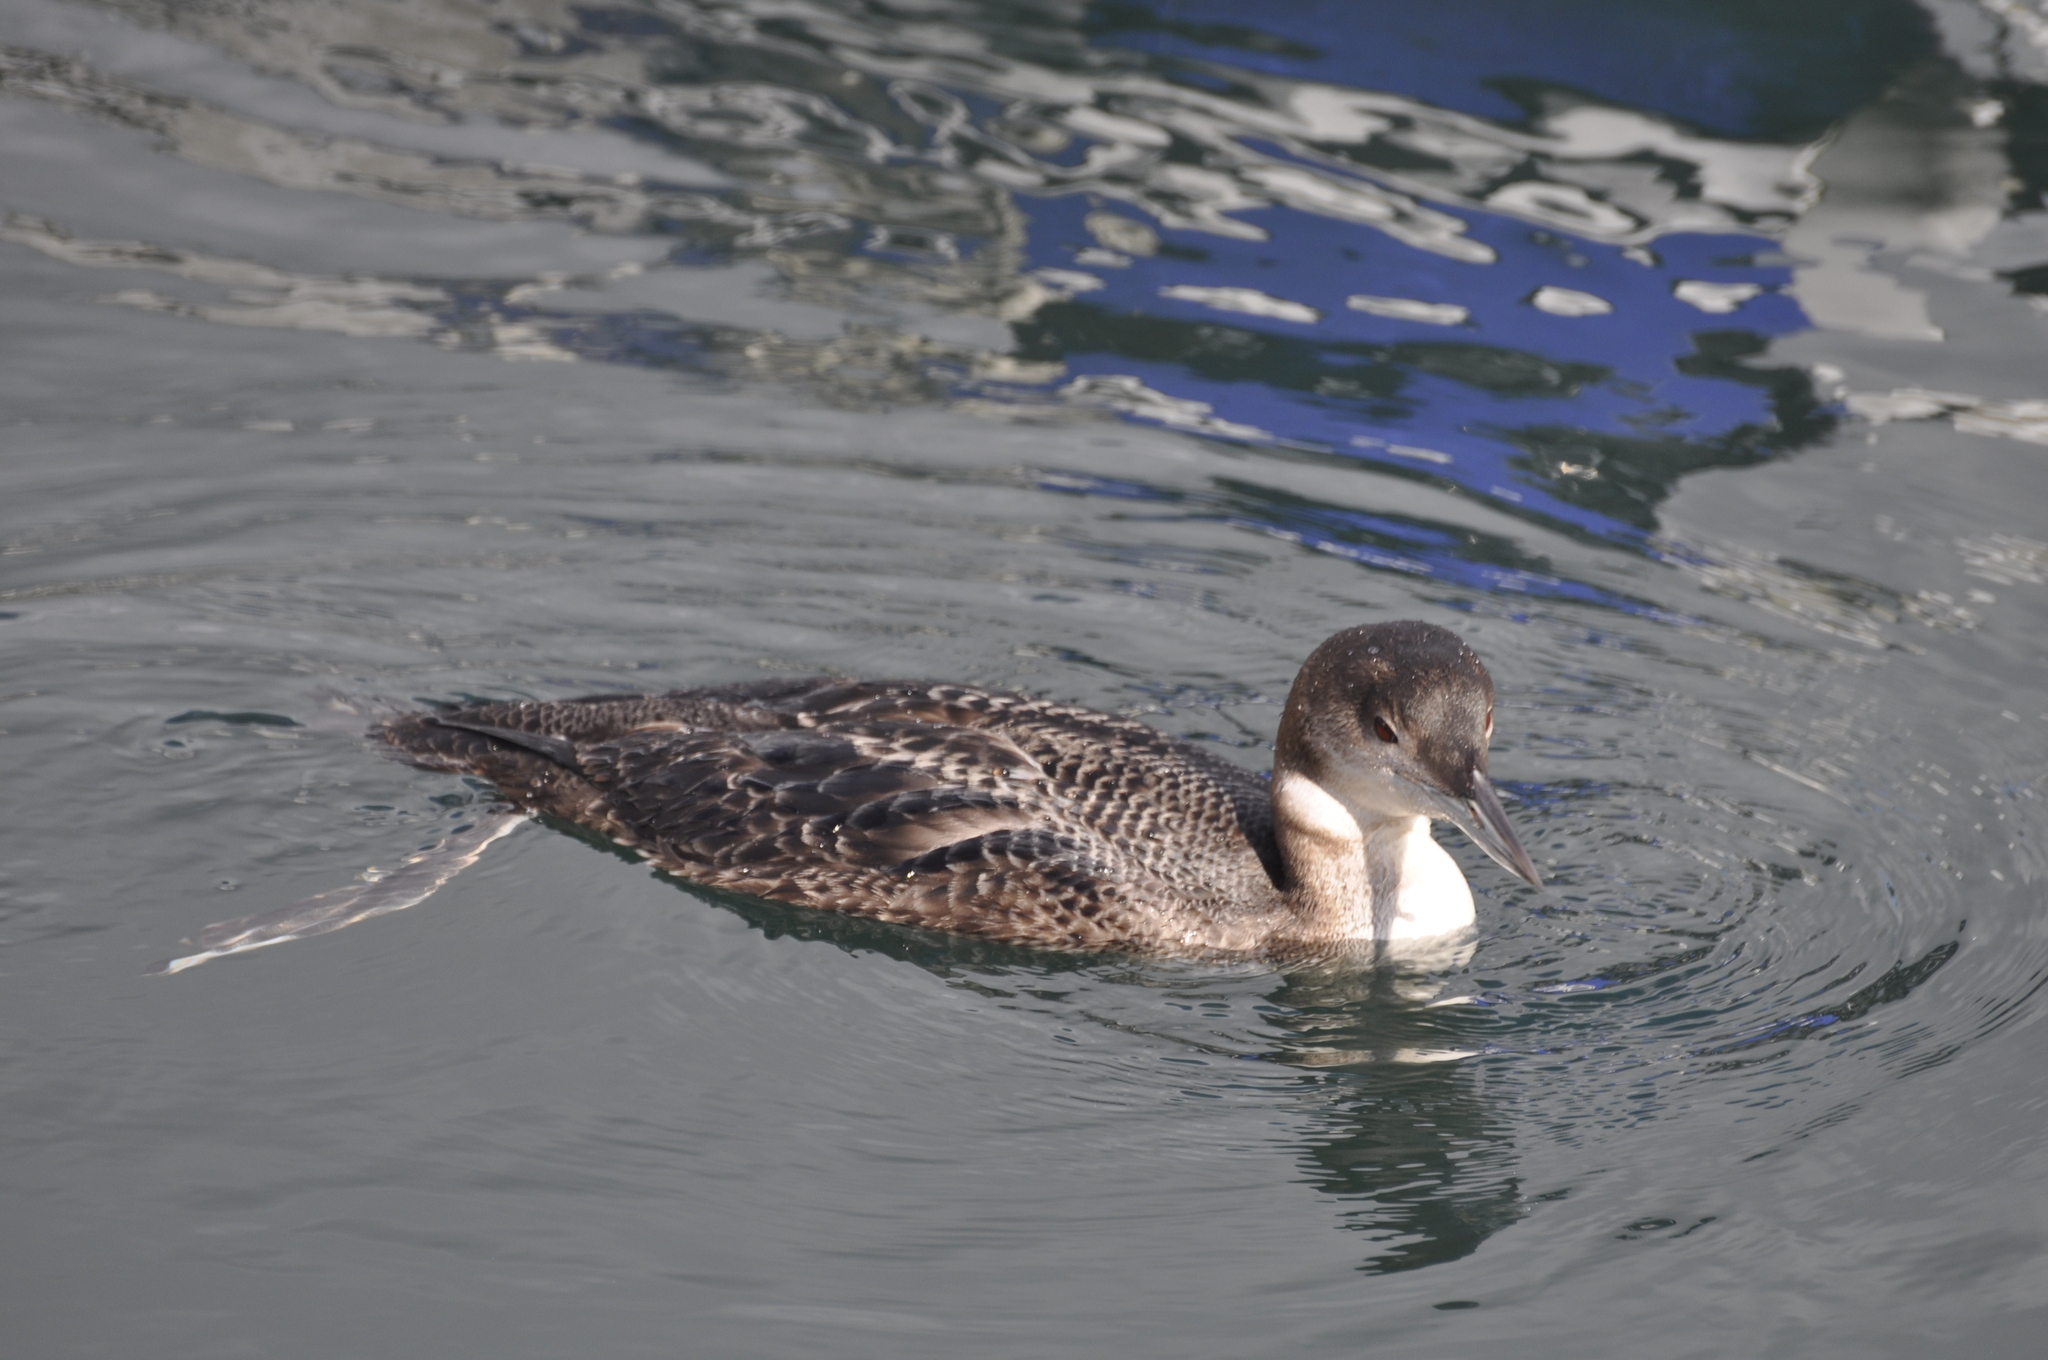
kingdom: Animalia
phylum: Chordata
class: Aves
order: Gaviiformes
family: Gaviidae
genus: Gavia
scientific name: Gavia immer
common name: Common loon
